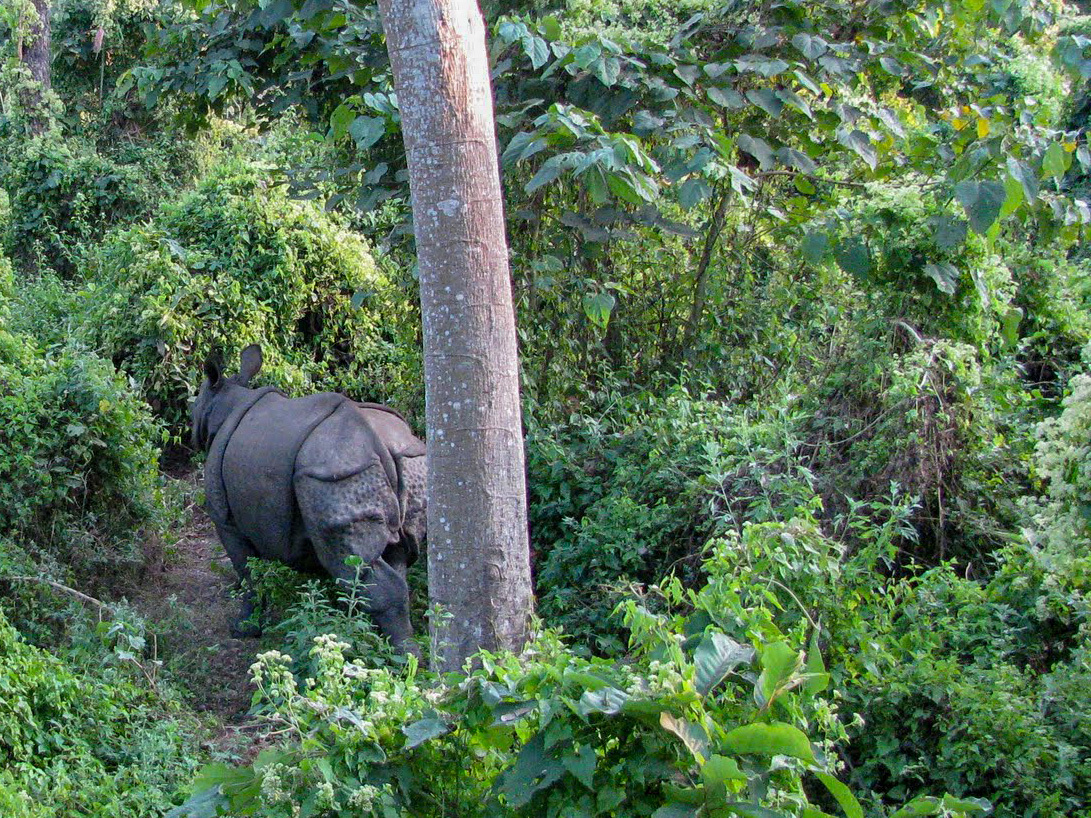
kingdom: Animalia
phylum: Chordata
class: Mammalia
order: Perissodactyla
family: Rhinocerotidae
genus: Rhinoceros
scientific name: Rhinoceros unicornis
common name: Indian rhinoceros
